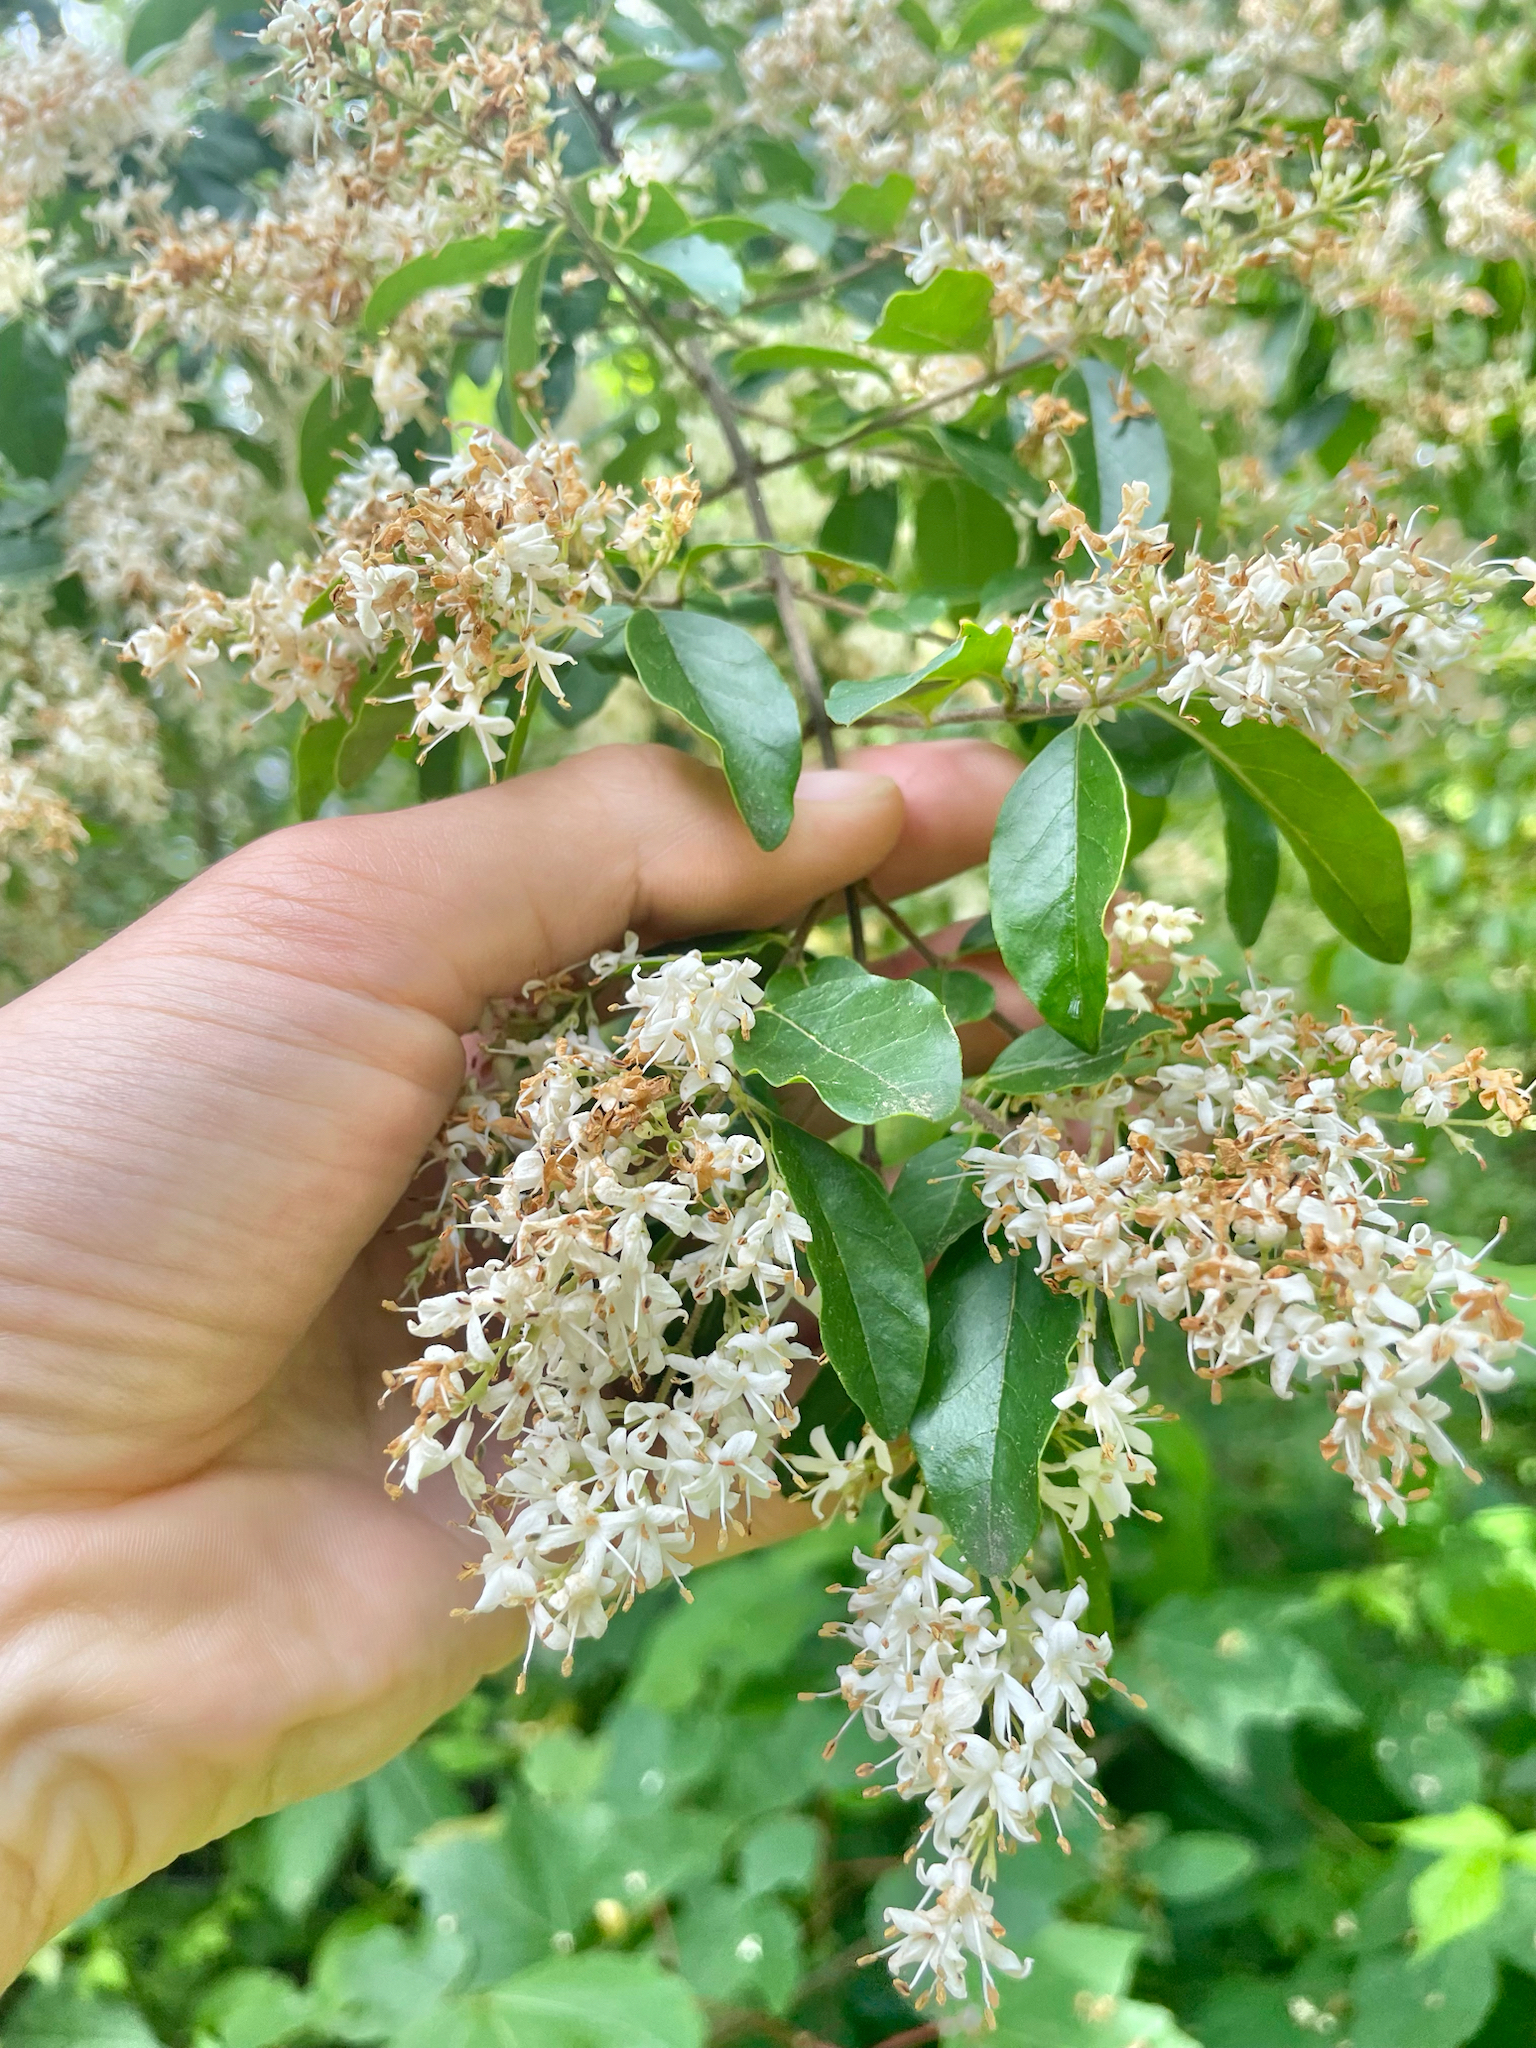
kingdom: Plantae
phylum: Tracheophyta
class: Magnoliopsida
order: Lamiales
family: Oleaceae
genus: Ligustrum
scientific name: Ligustrum sinense
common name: Chinese privet
